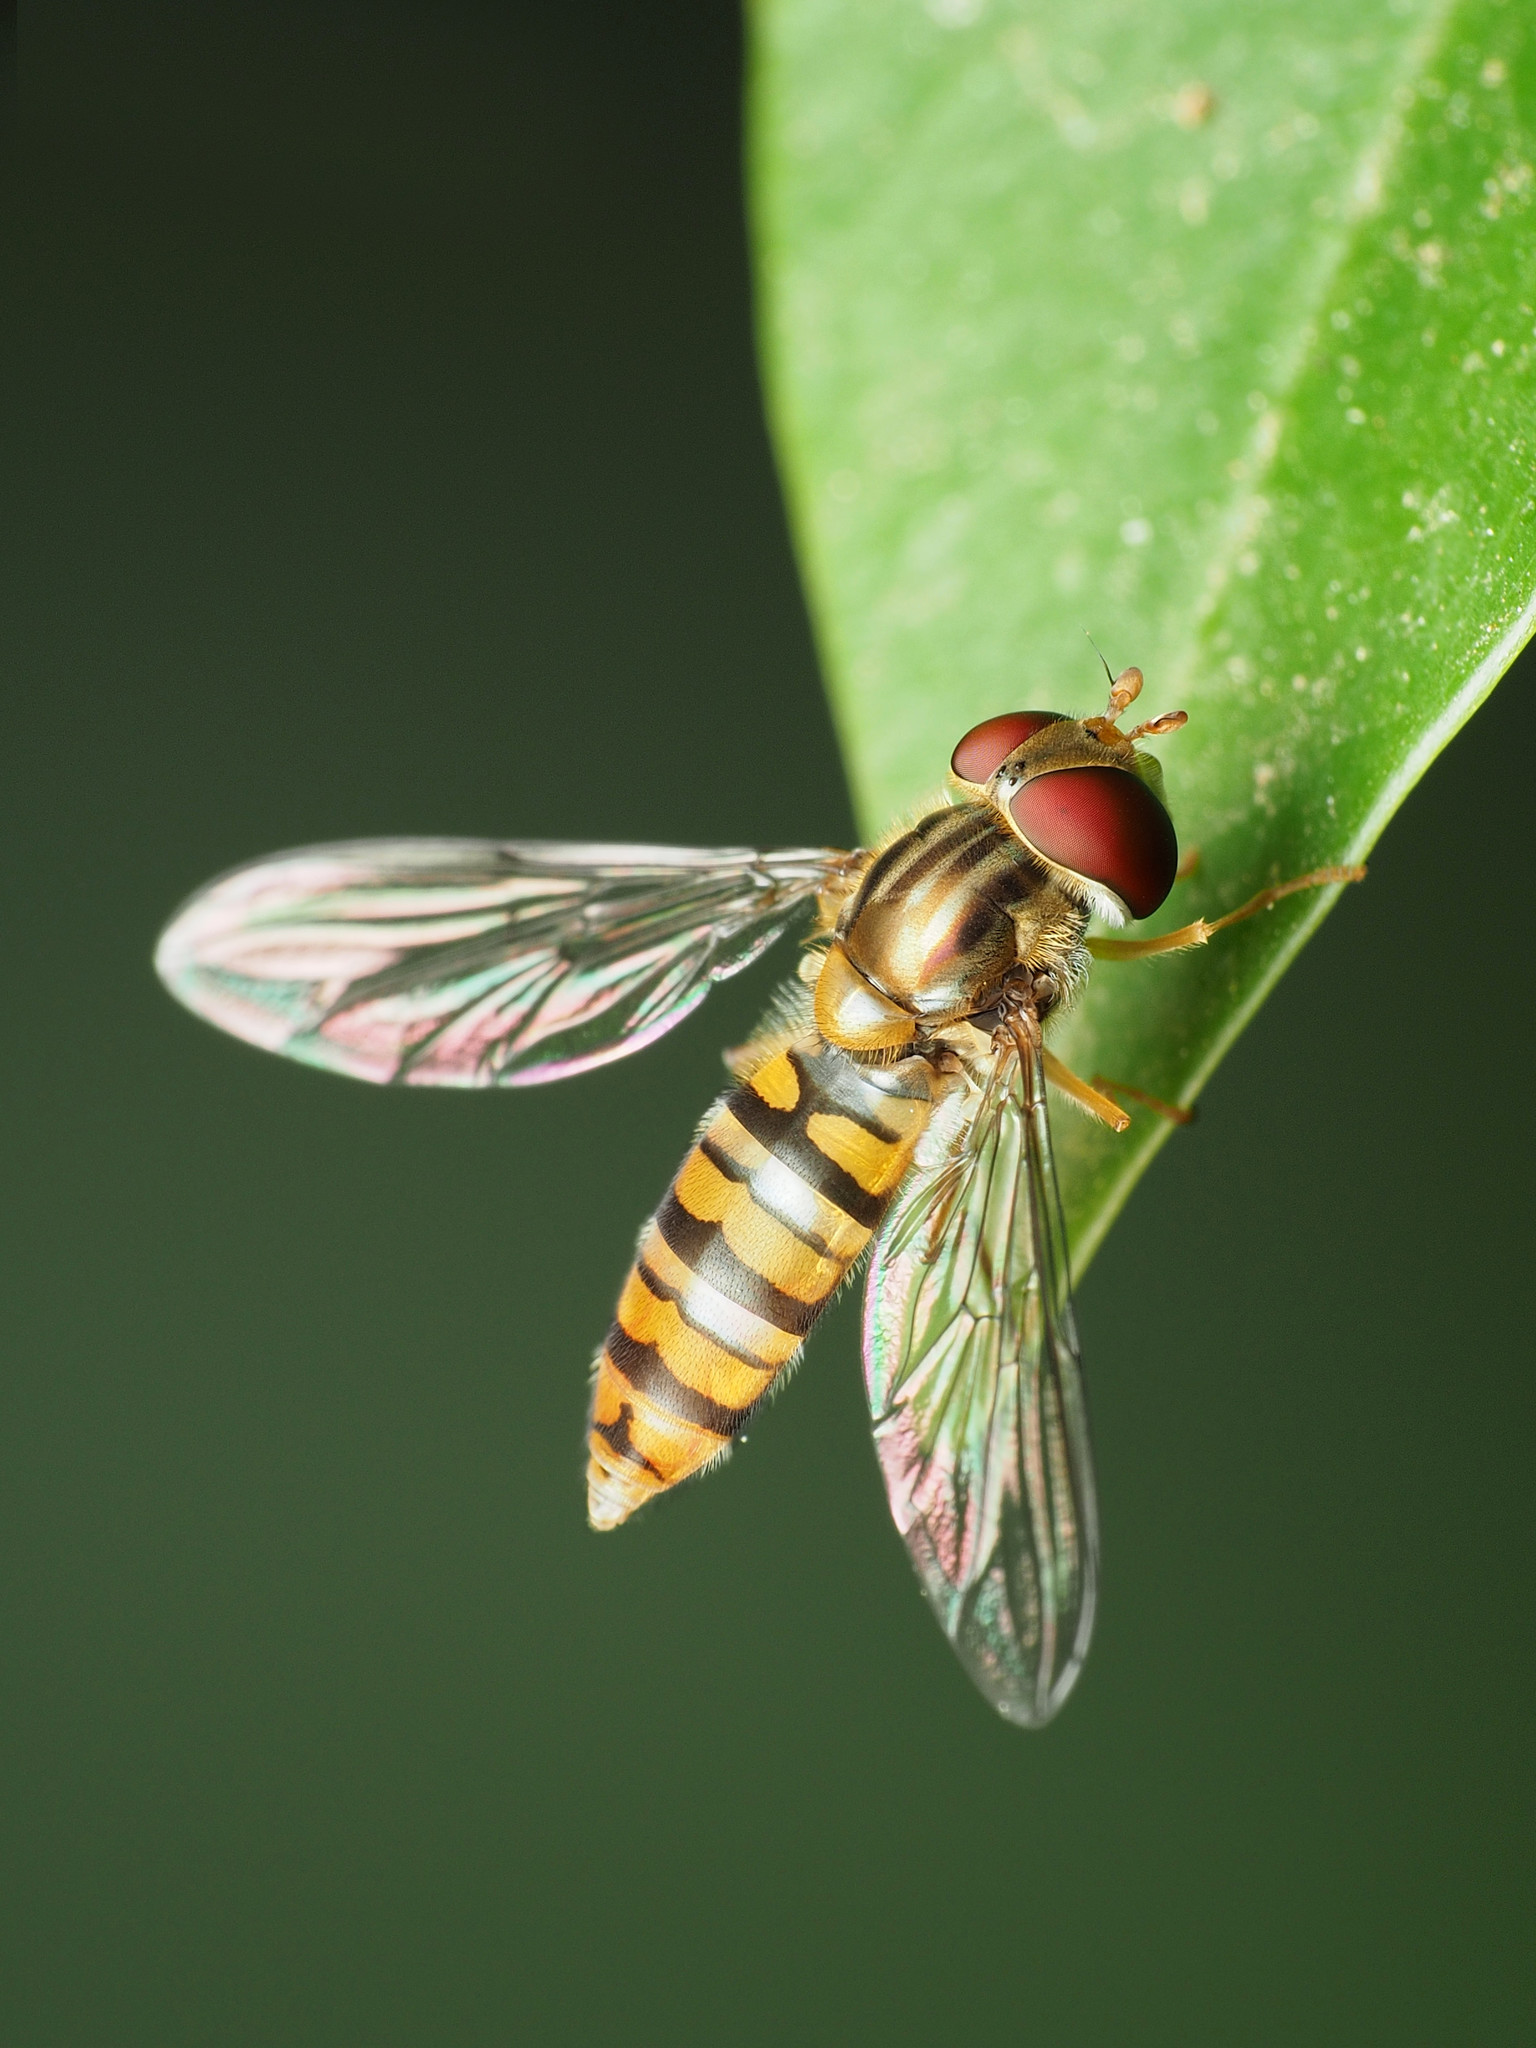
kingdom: Animalia
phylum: Arthropoda
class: Insecta
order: Diptera
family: Syrphidae
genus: Episyrphus
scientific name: Episyrphus balteatus
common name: Marmalade hoverfly
